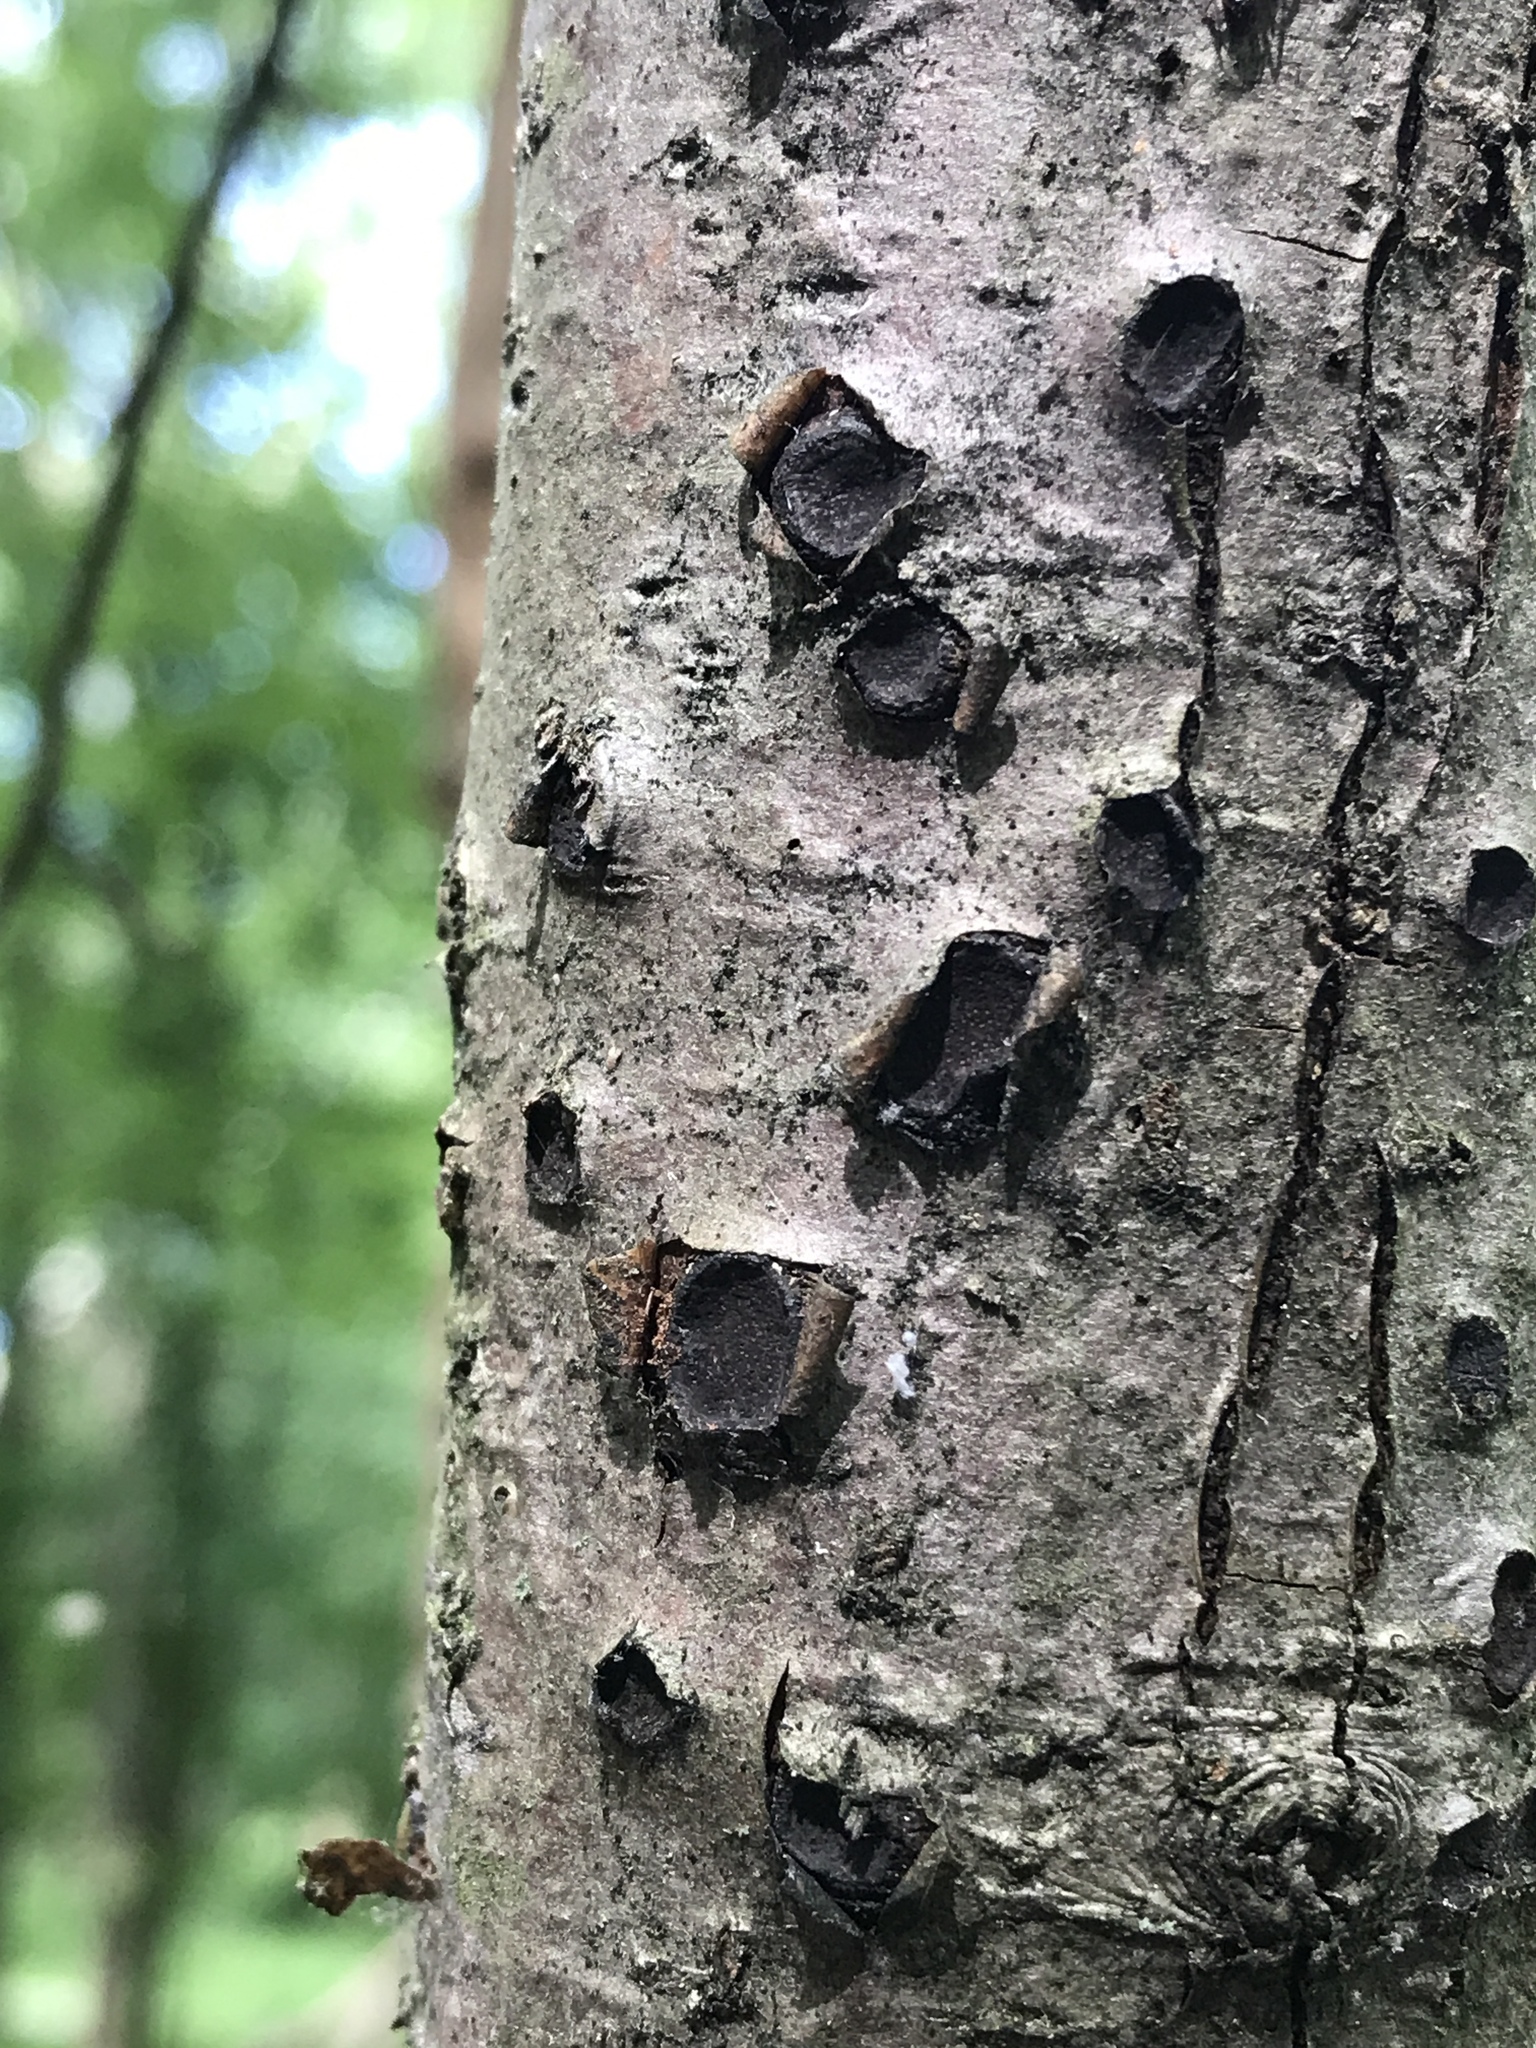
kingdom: Fungi
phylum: Ascomycota
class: Sordariomycetes
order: Xylariales
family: Graphostromataceae
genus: Biscogniauxia
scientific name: Biscogniauxia marginata
